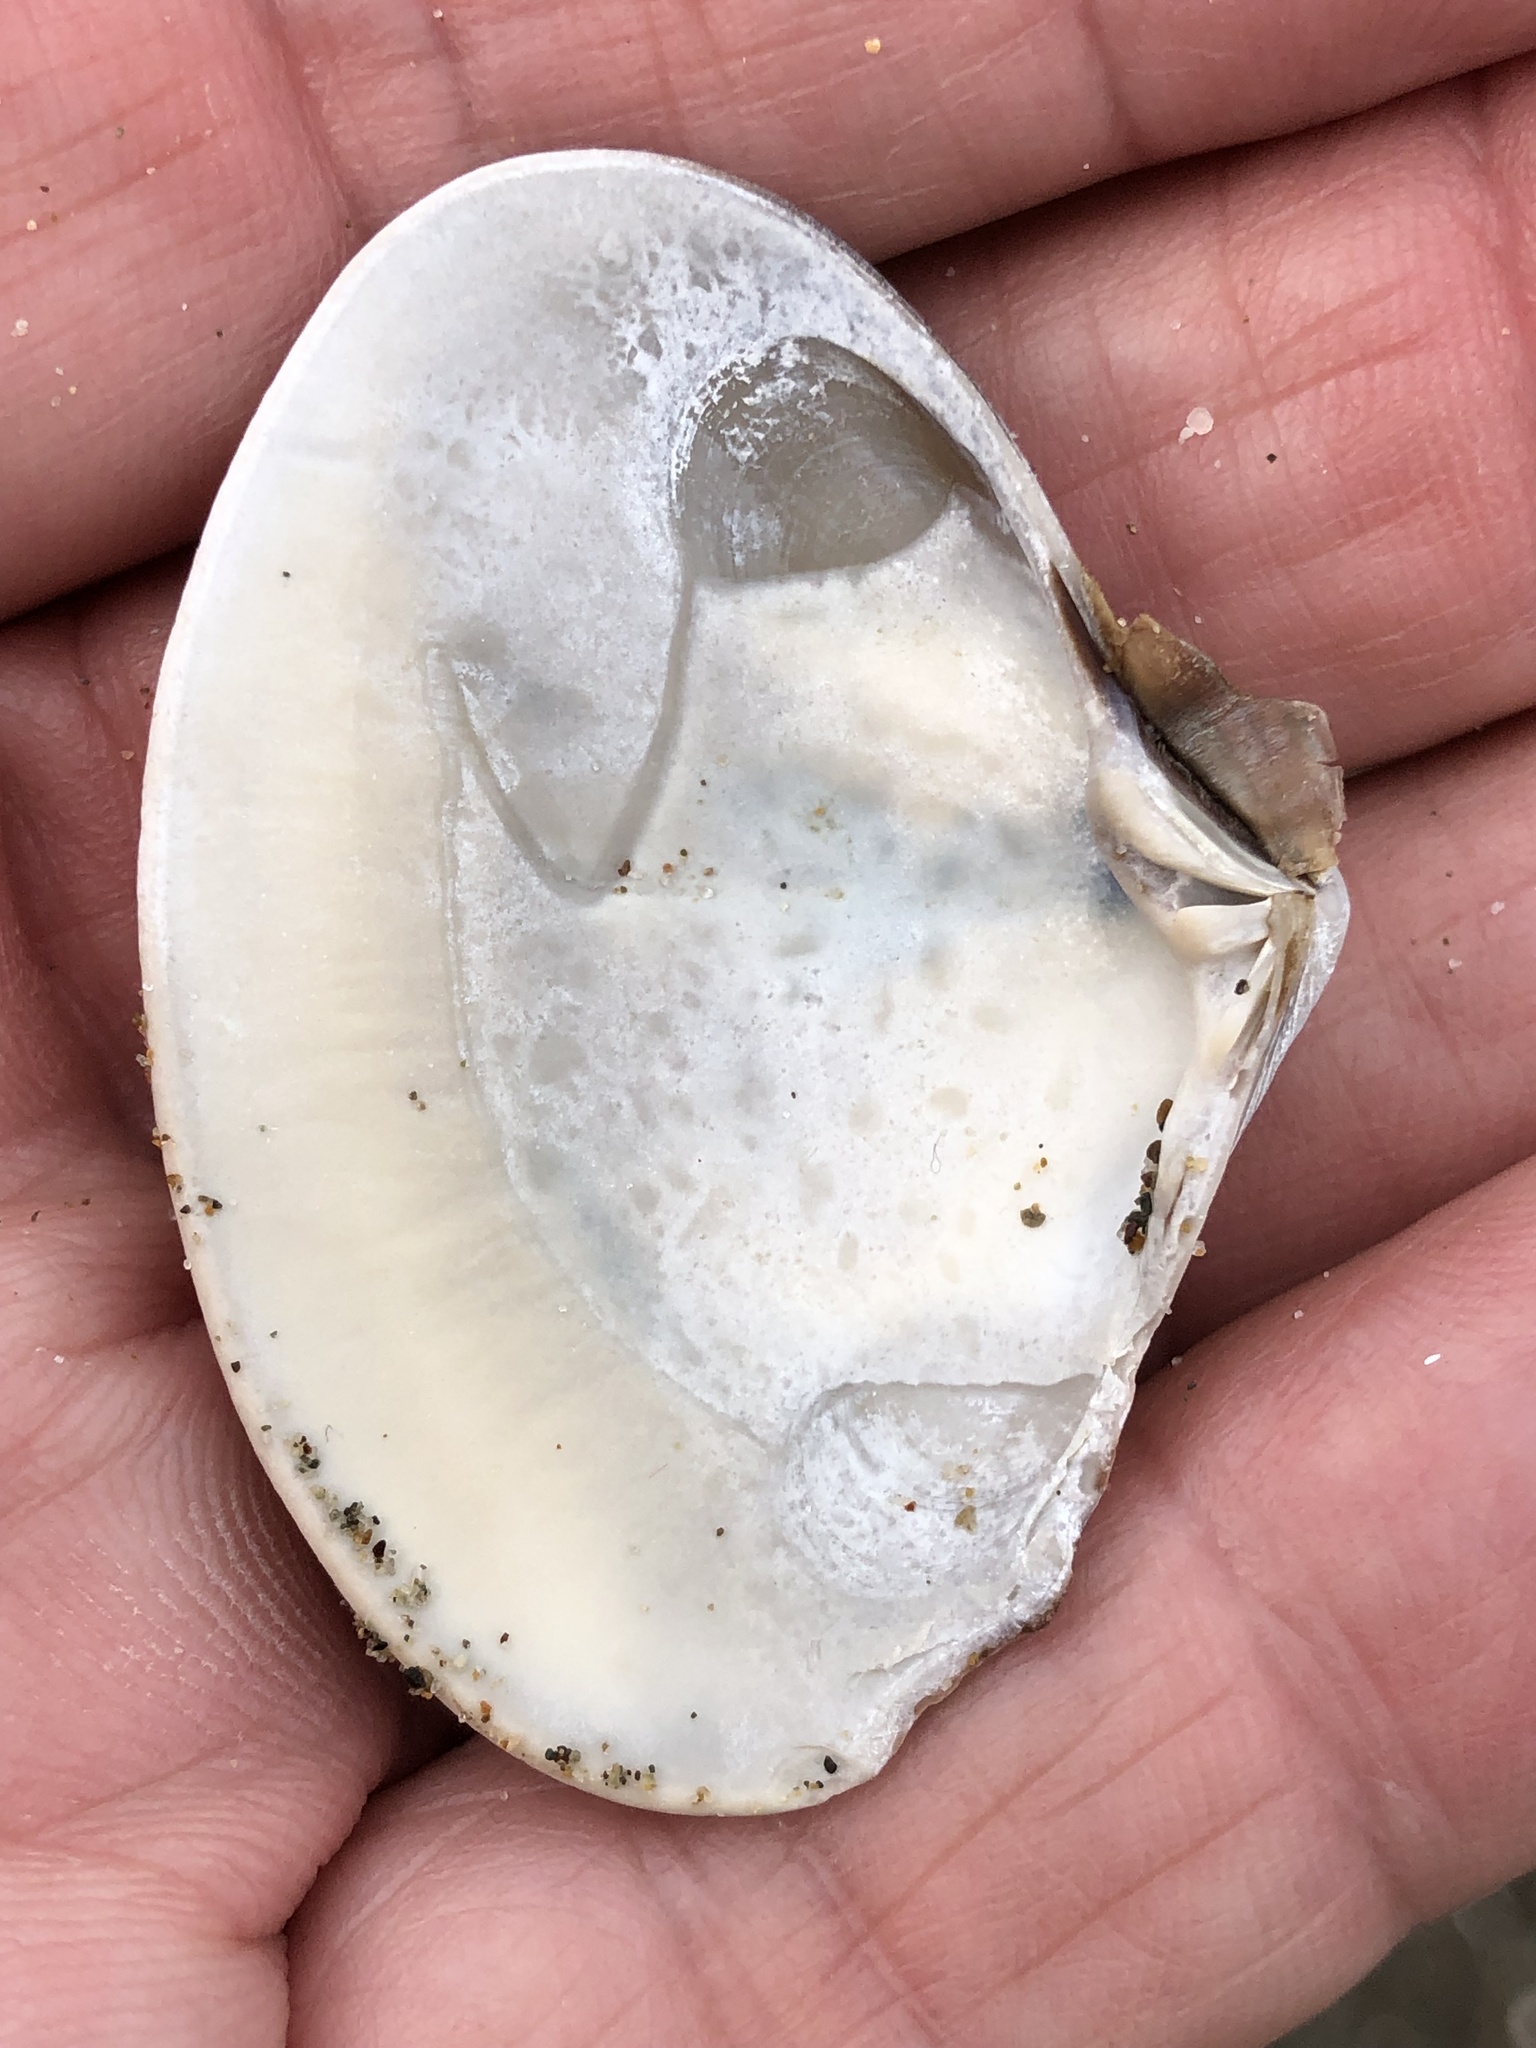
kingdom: Animalia
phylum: Mollusca
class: Bivalvia
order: Venerida
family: Veneridae
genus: Tivela
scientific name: Tivela stultorum
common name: Pismo clam
